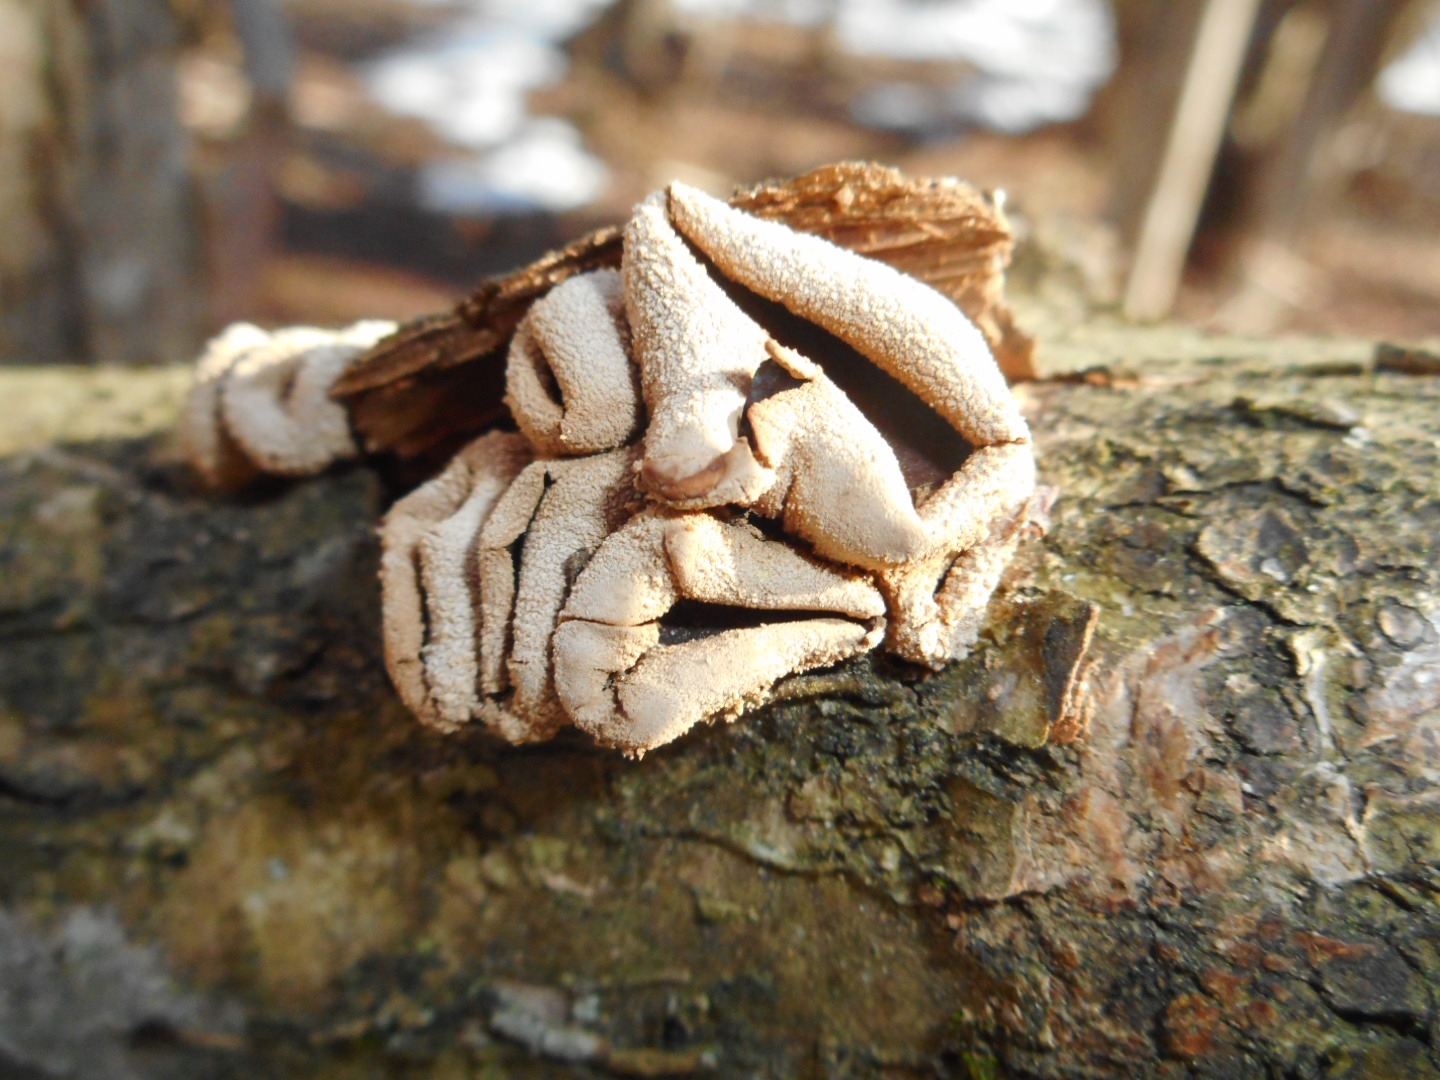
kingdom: Fungi
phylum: Ascomycota
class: Leotiomycetes
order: Helotiales
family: Cenangiaceae
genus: Encoelia
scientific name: Encoelia furfuracea
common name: Spring hazelcup
